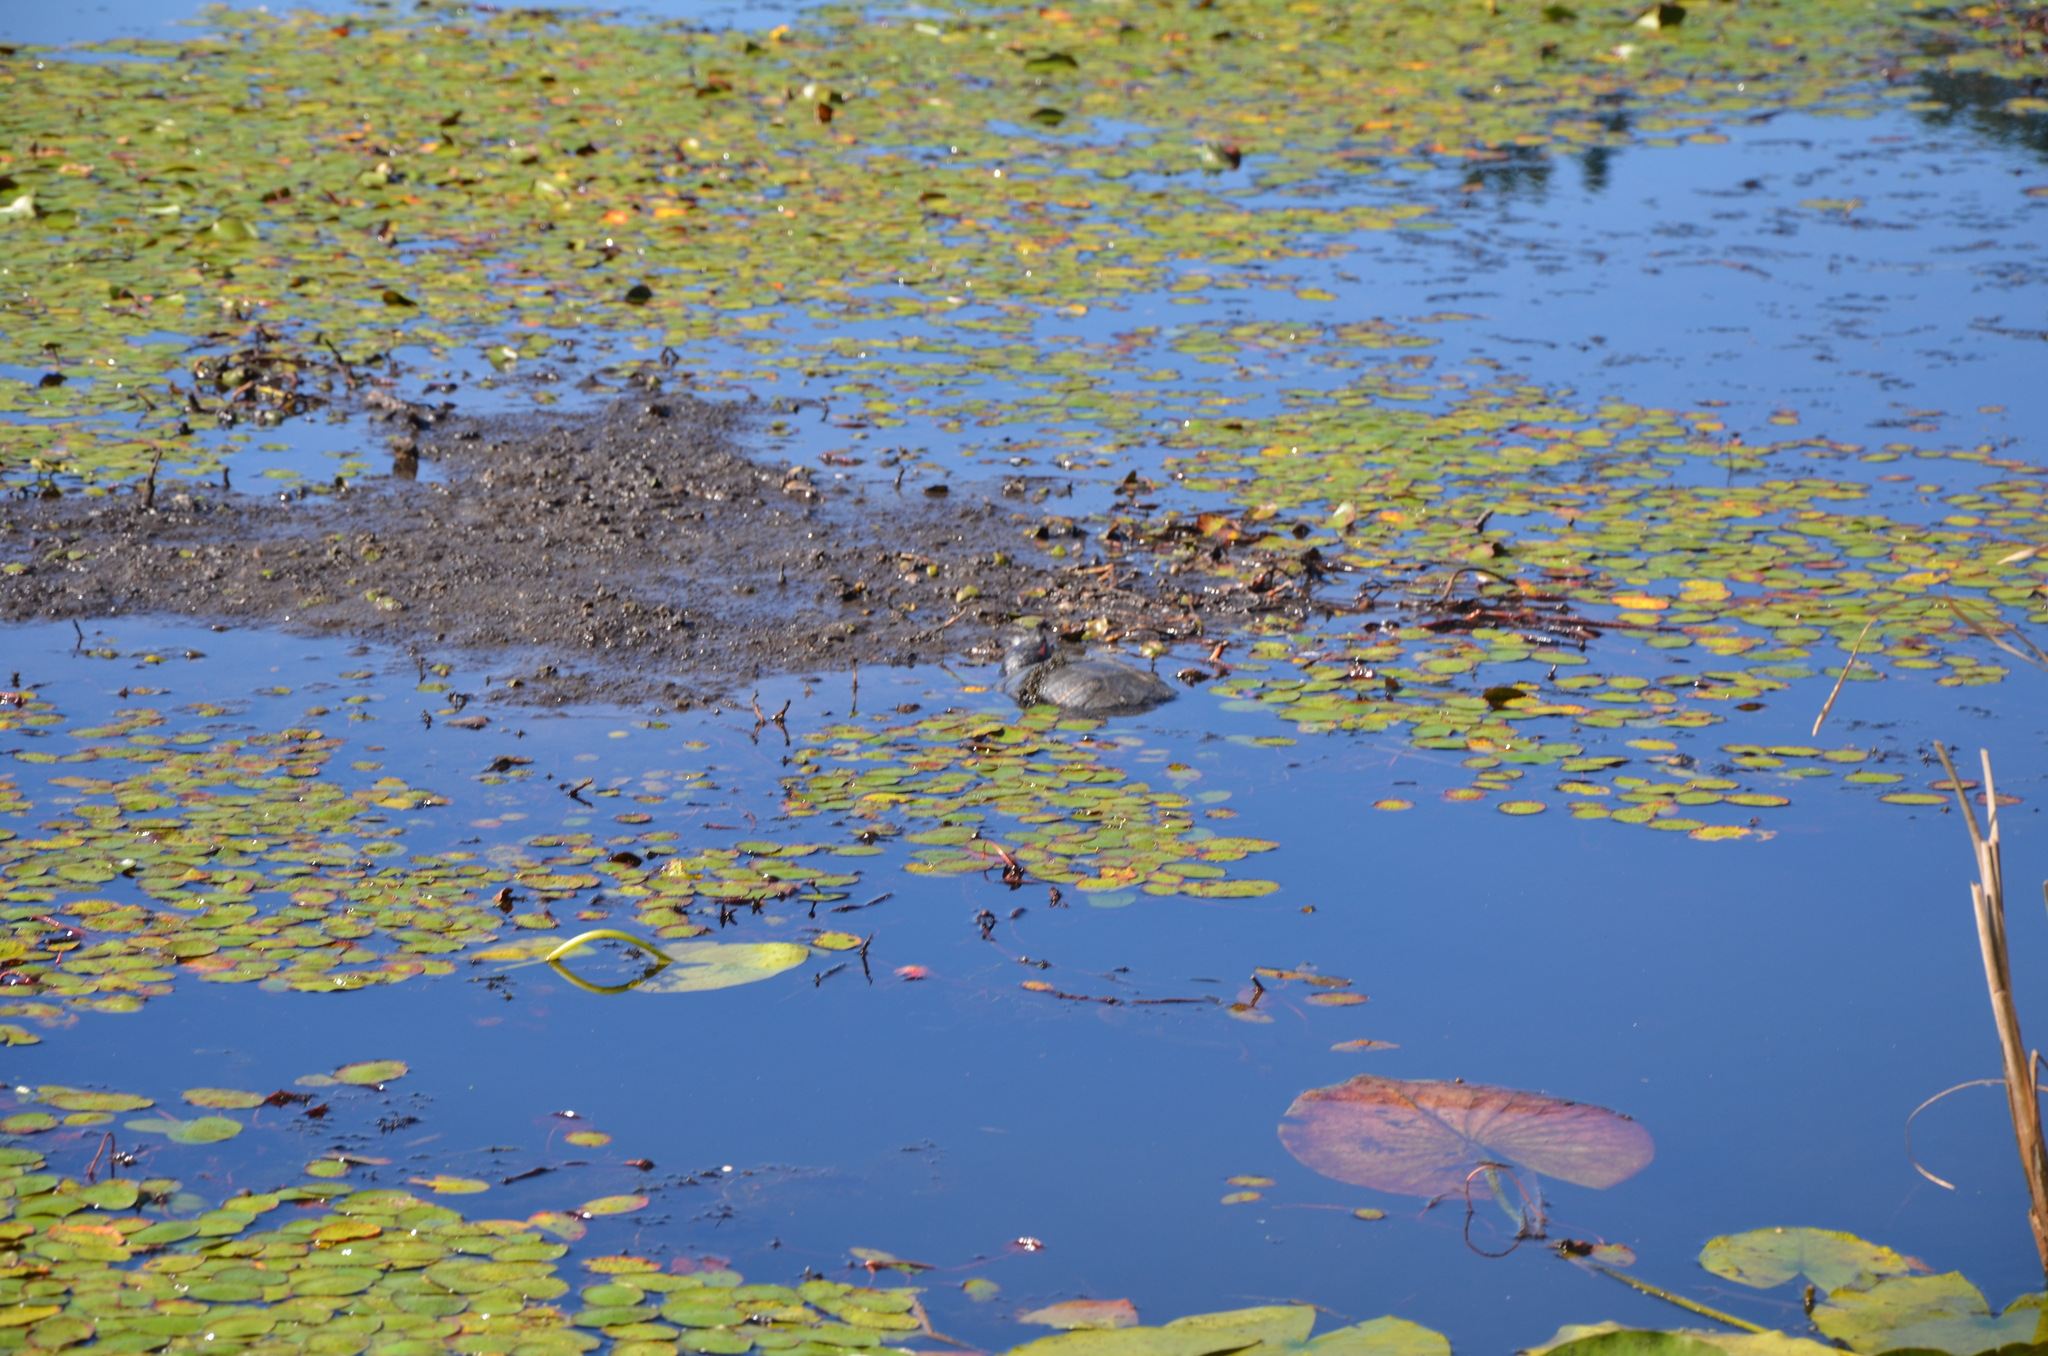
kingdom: Animalia
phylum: Chordata
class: Testudines
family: Emydidae
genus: Trachemys
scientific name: Trachemys scripta
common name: Slider
